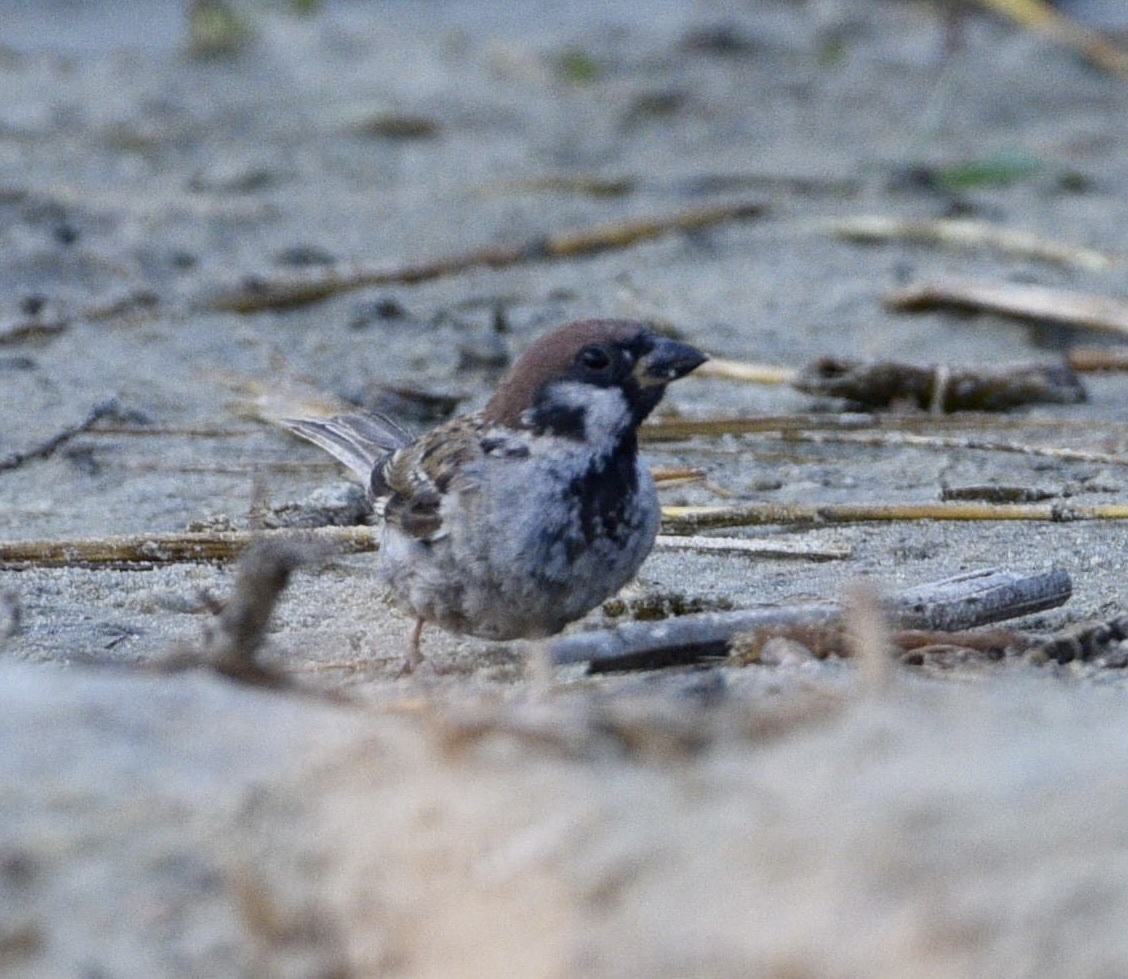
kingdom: Animalia
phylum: Chordata
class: Aves
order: Passeriformes
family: Passeridae
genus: Passer
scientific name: Passer montanus
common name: Eurasian tree sparrow
